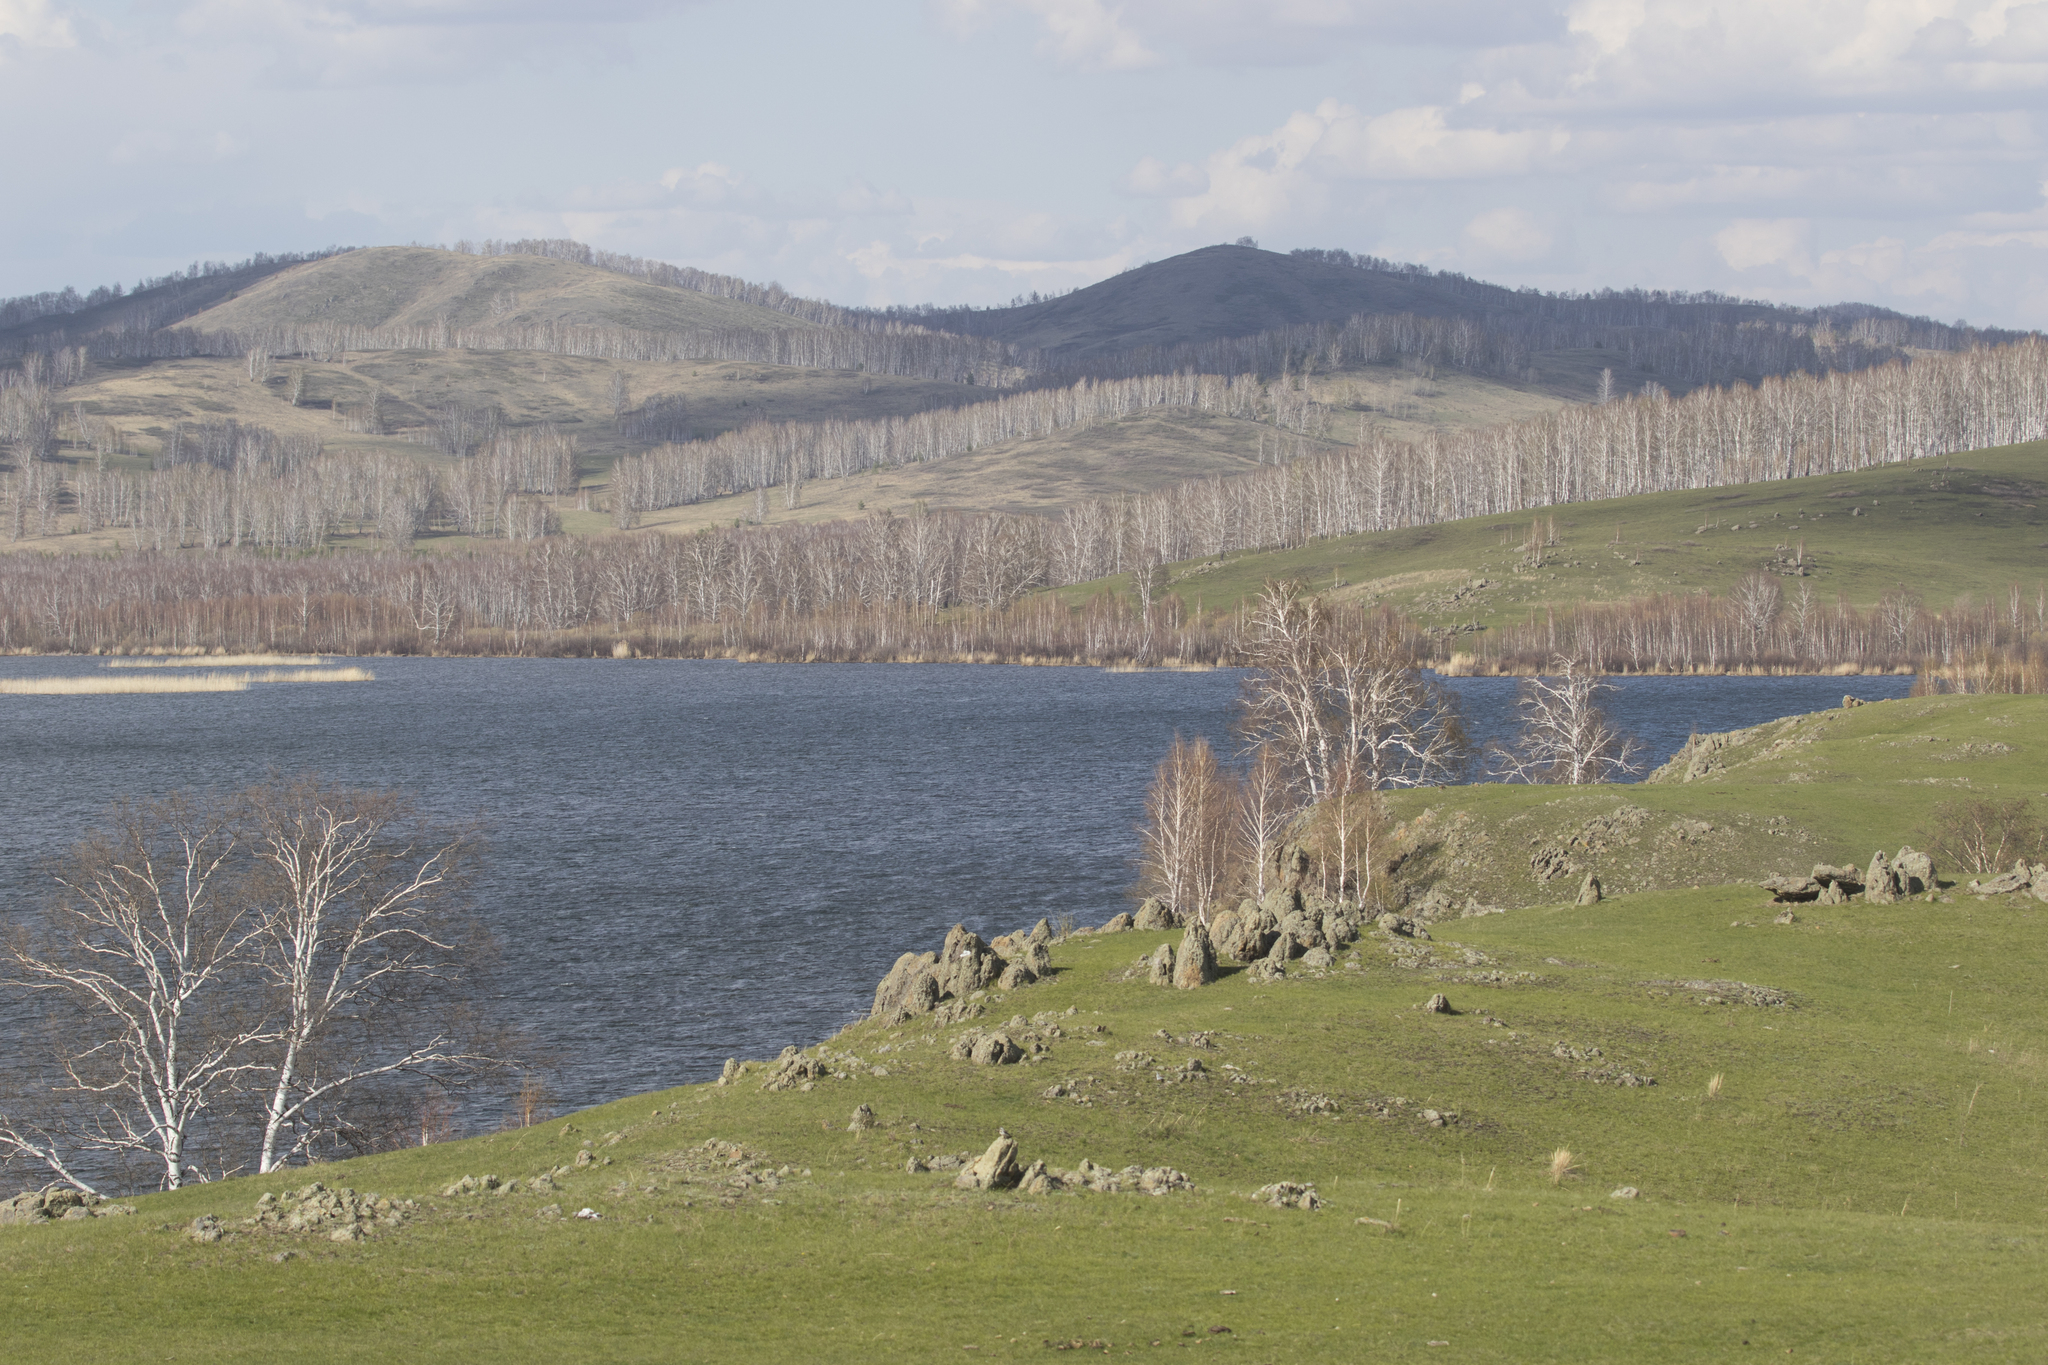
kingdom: Animalia
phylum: Chordata
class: Mammalia
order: Rodentia
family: Sciuridae
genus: Spermophilus
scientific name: Spermophilus major
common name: Russet ground squirrel
